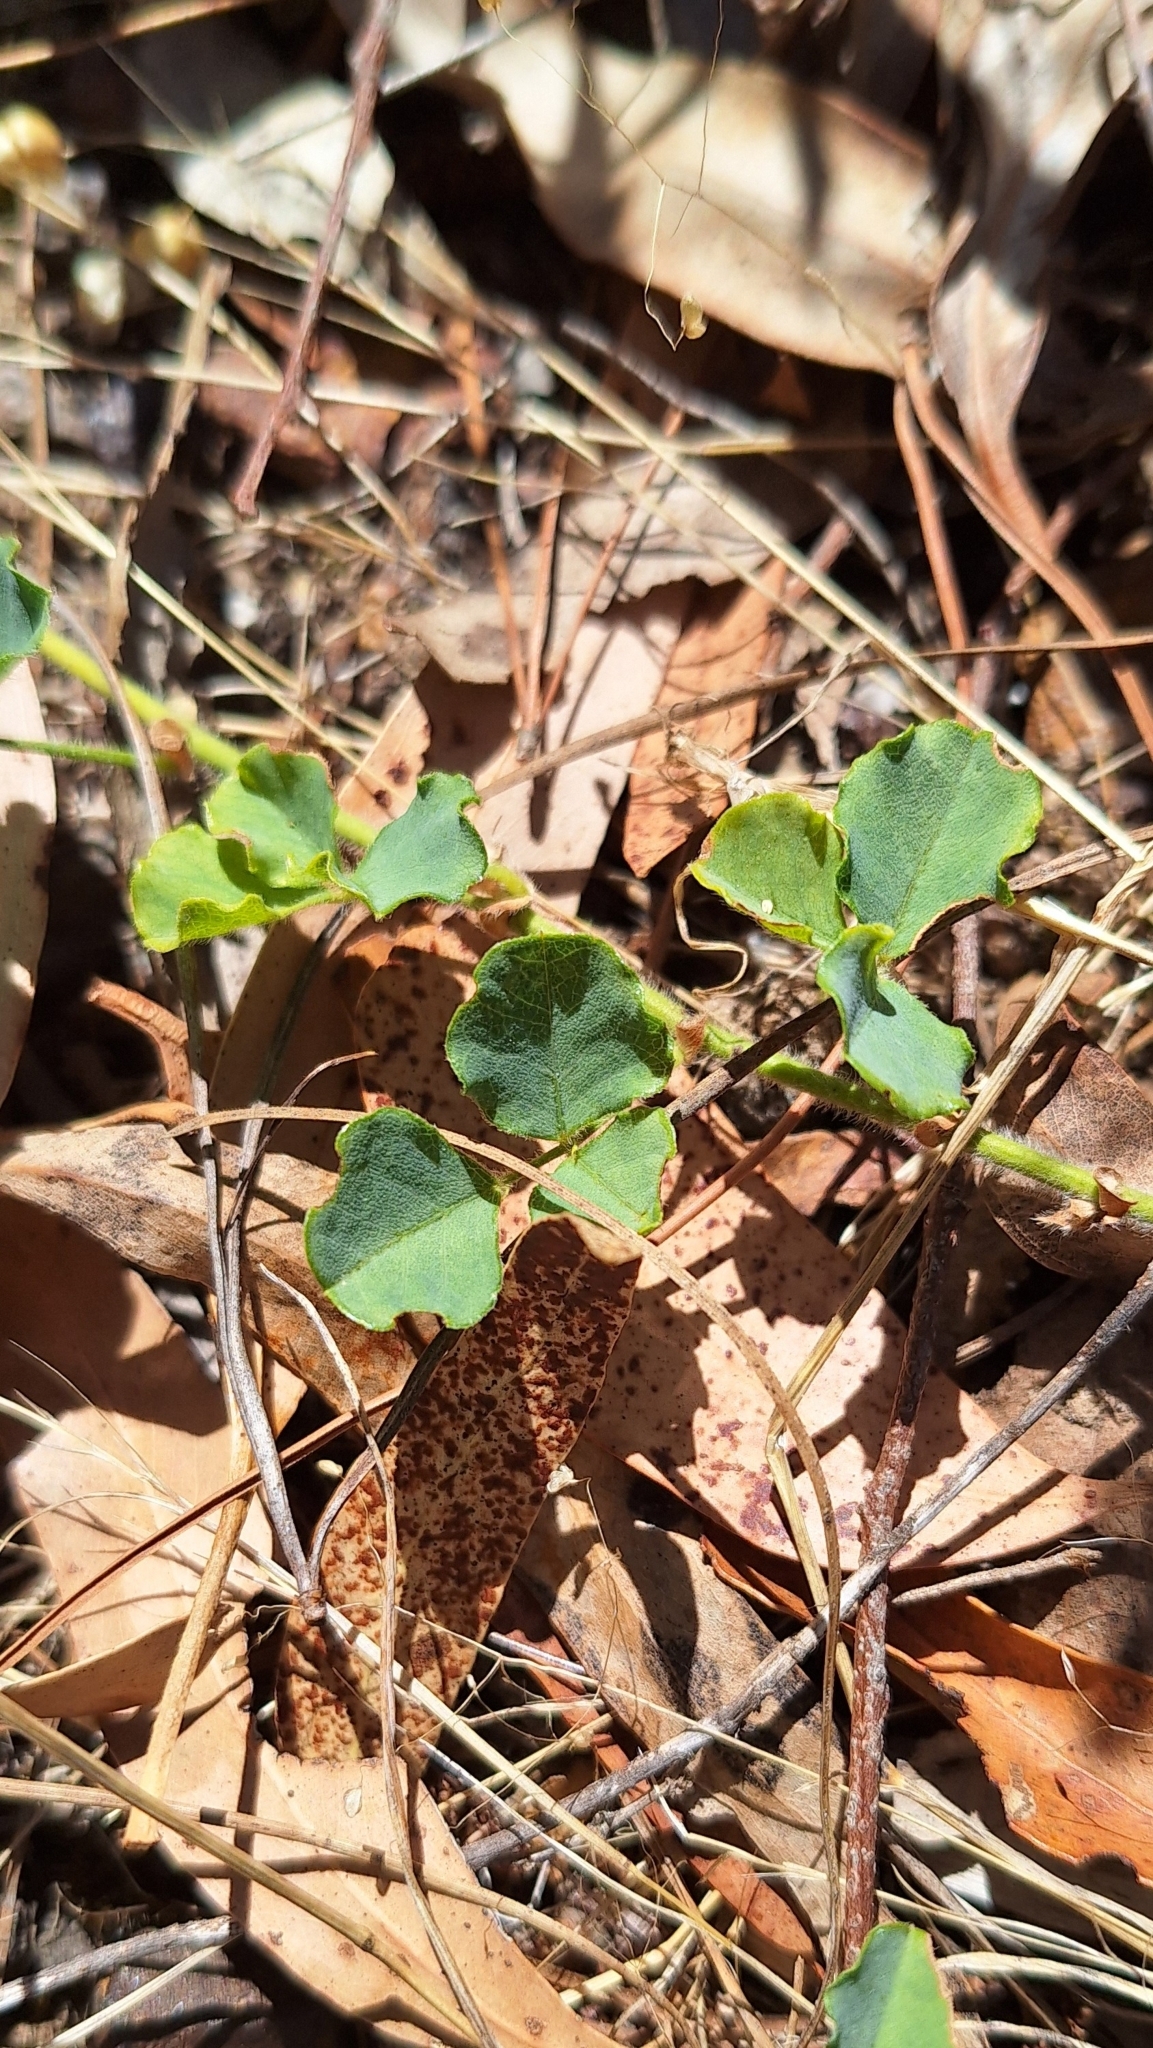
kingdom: Plantae
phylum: Tracheophyta
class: Magnoliopsida
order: Fabales
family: Fabaceae
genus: Kennedia
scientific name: Kennedia prostrata
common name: Running-postman
